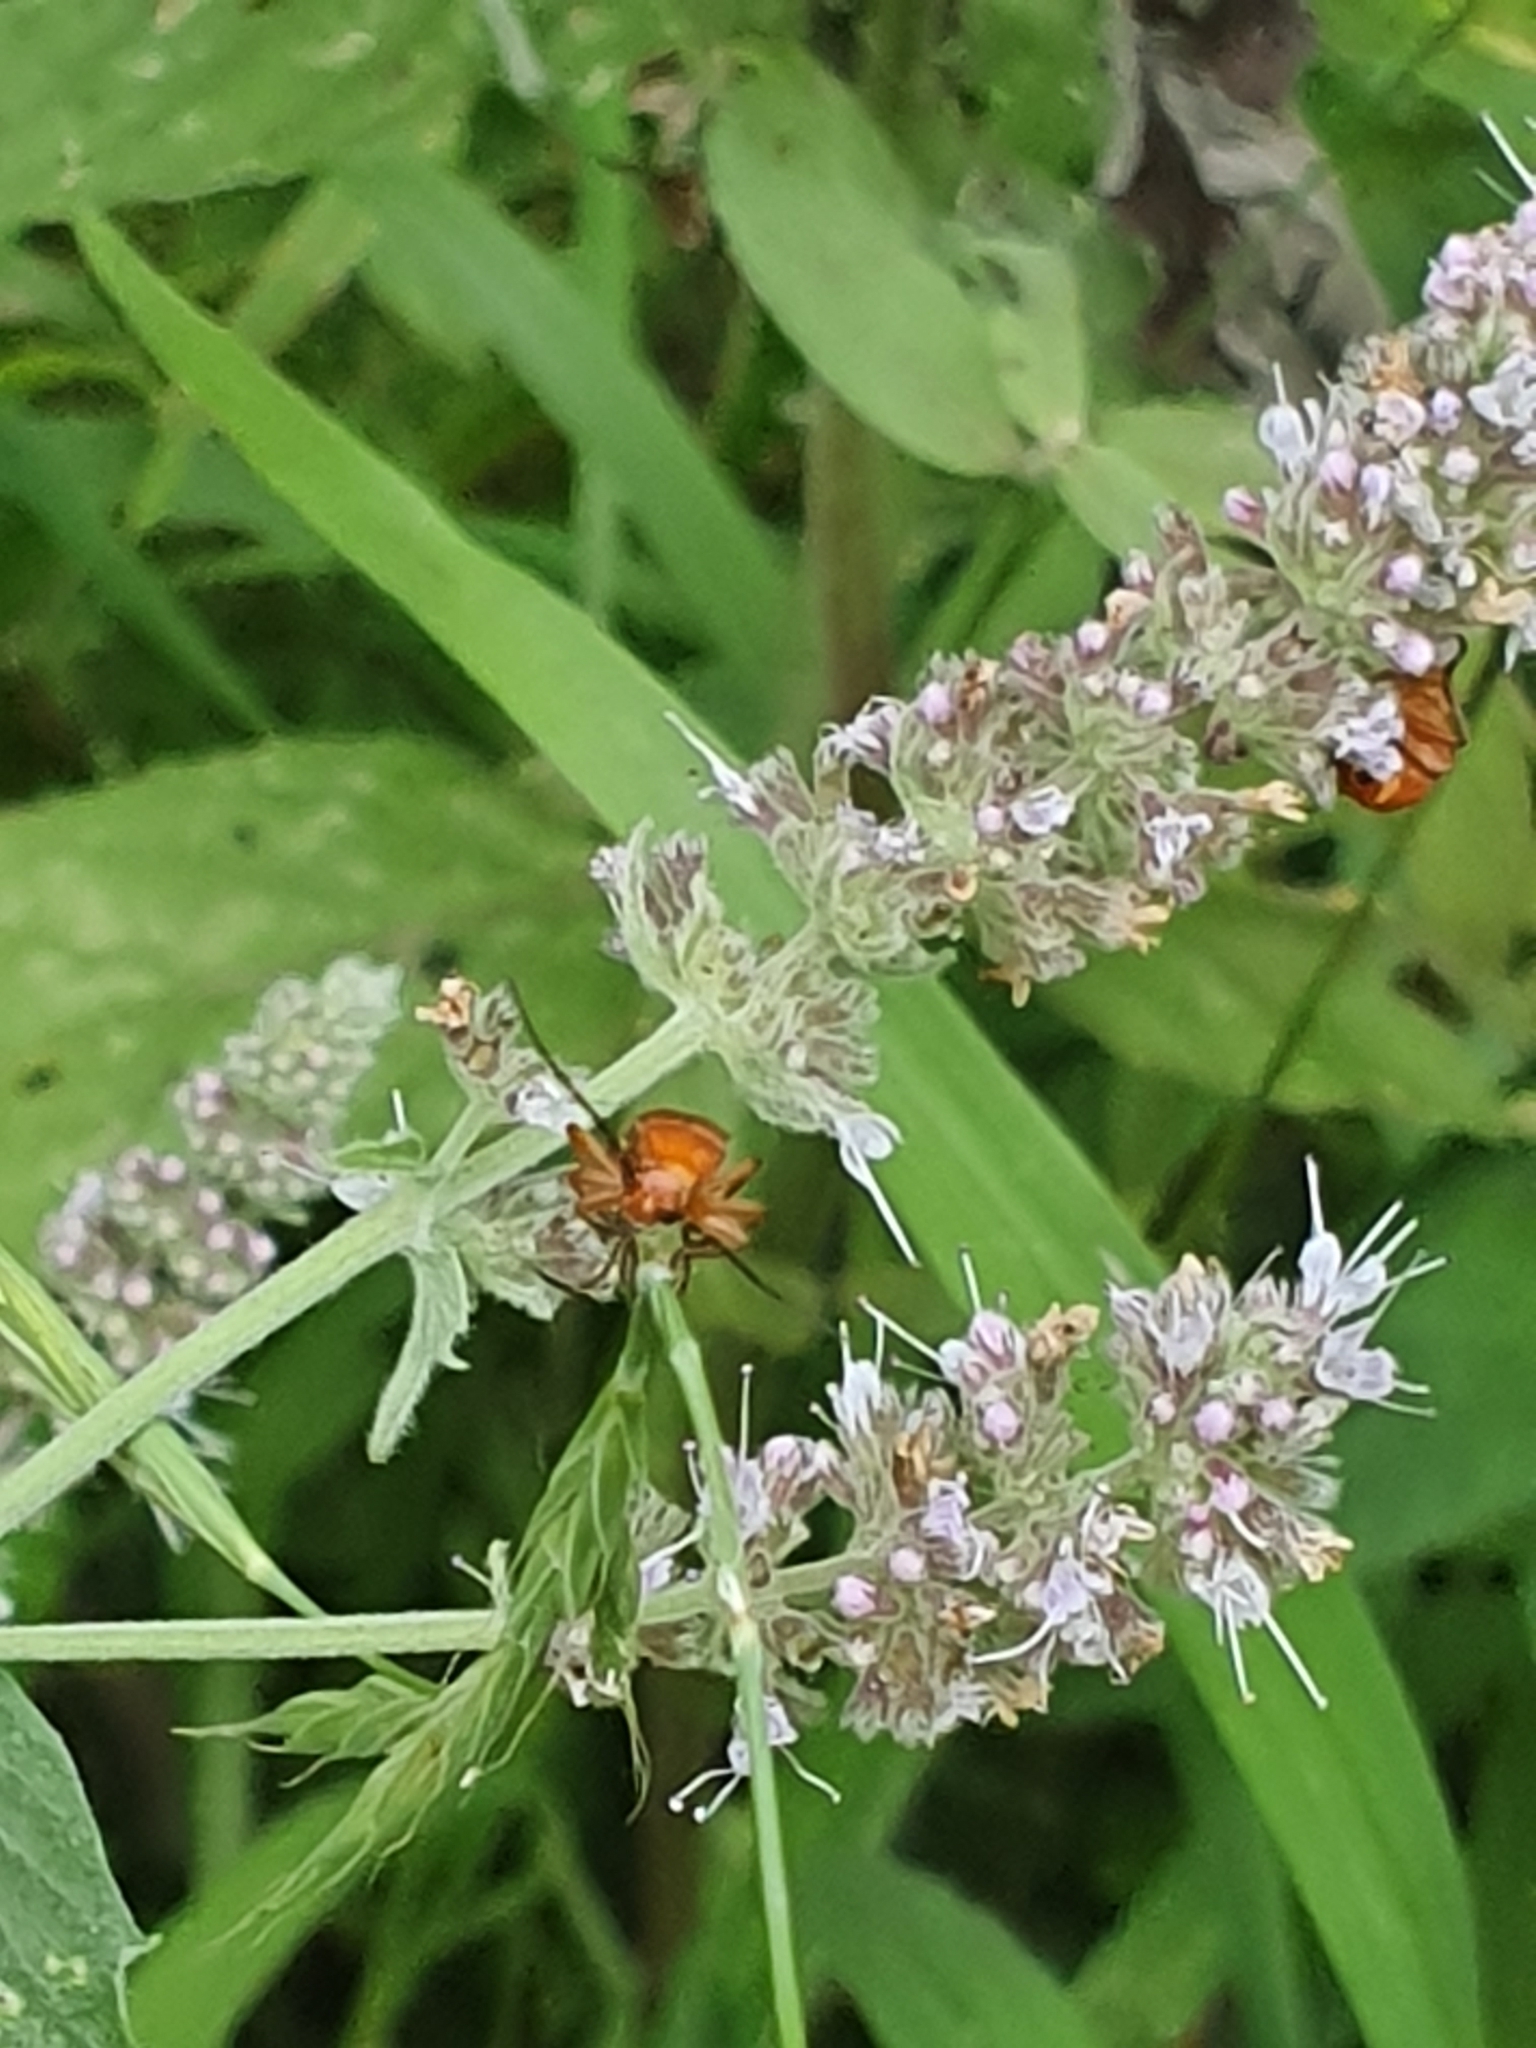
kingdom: Animalia
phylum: Arthropoda
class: Insecta
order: Coleoptera
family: Cantharidae
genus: Rhagonycha
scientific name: Rhagonycha fulva
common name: Common red soldier beetle
